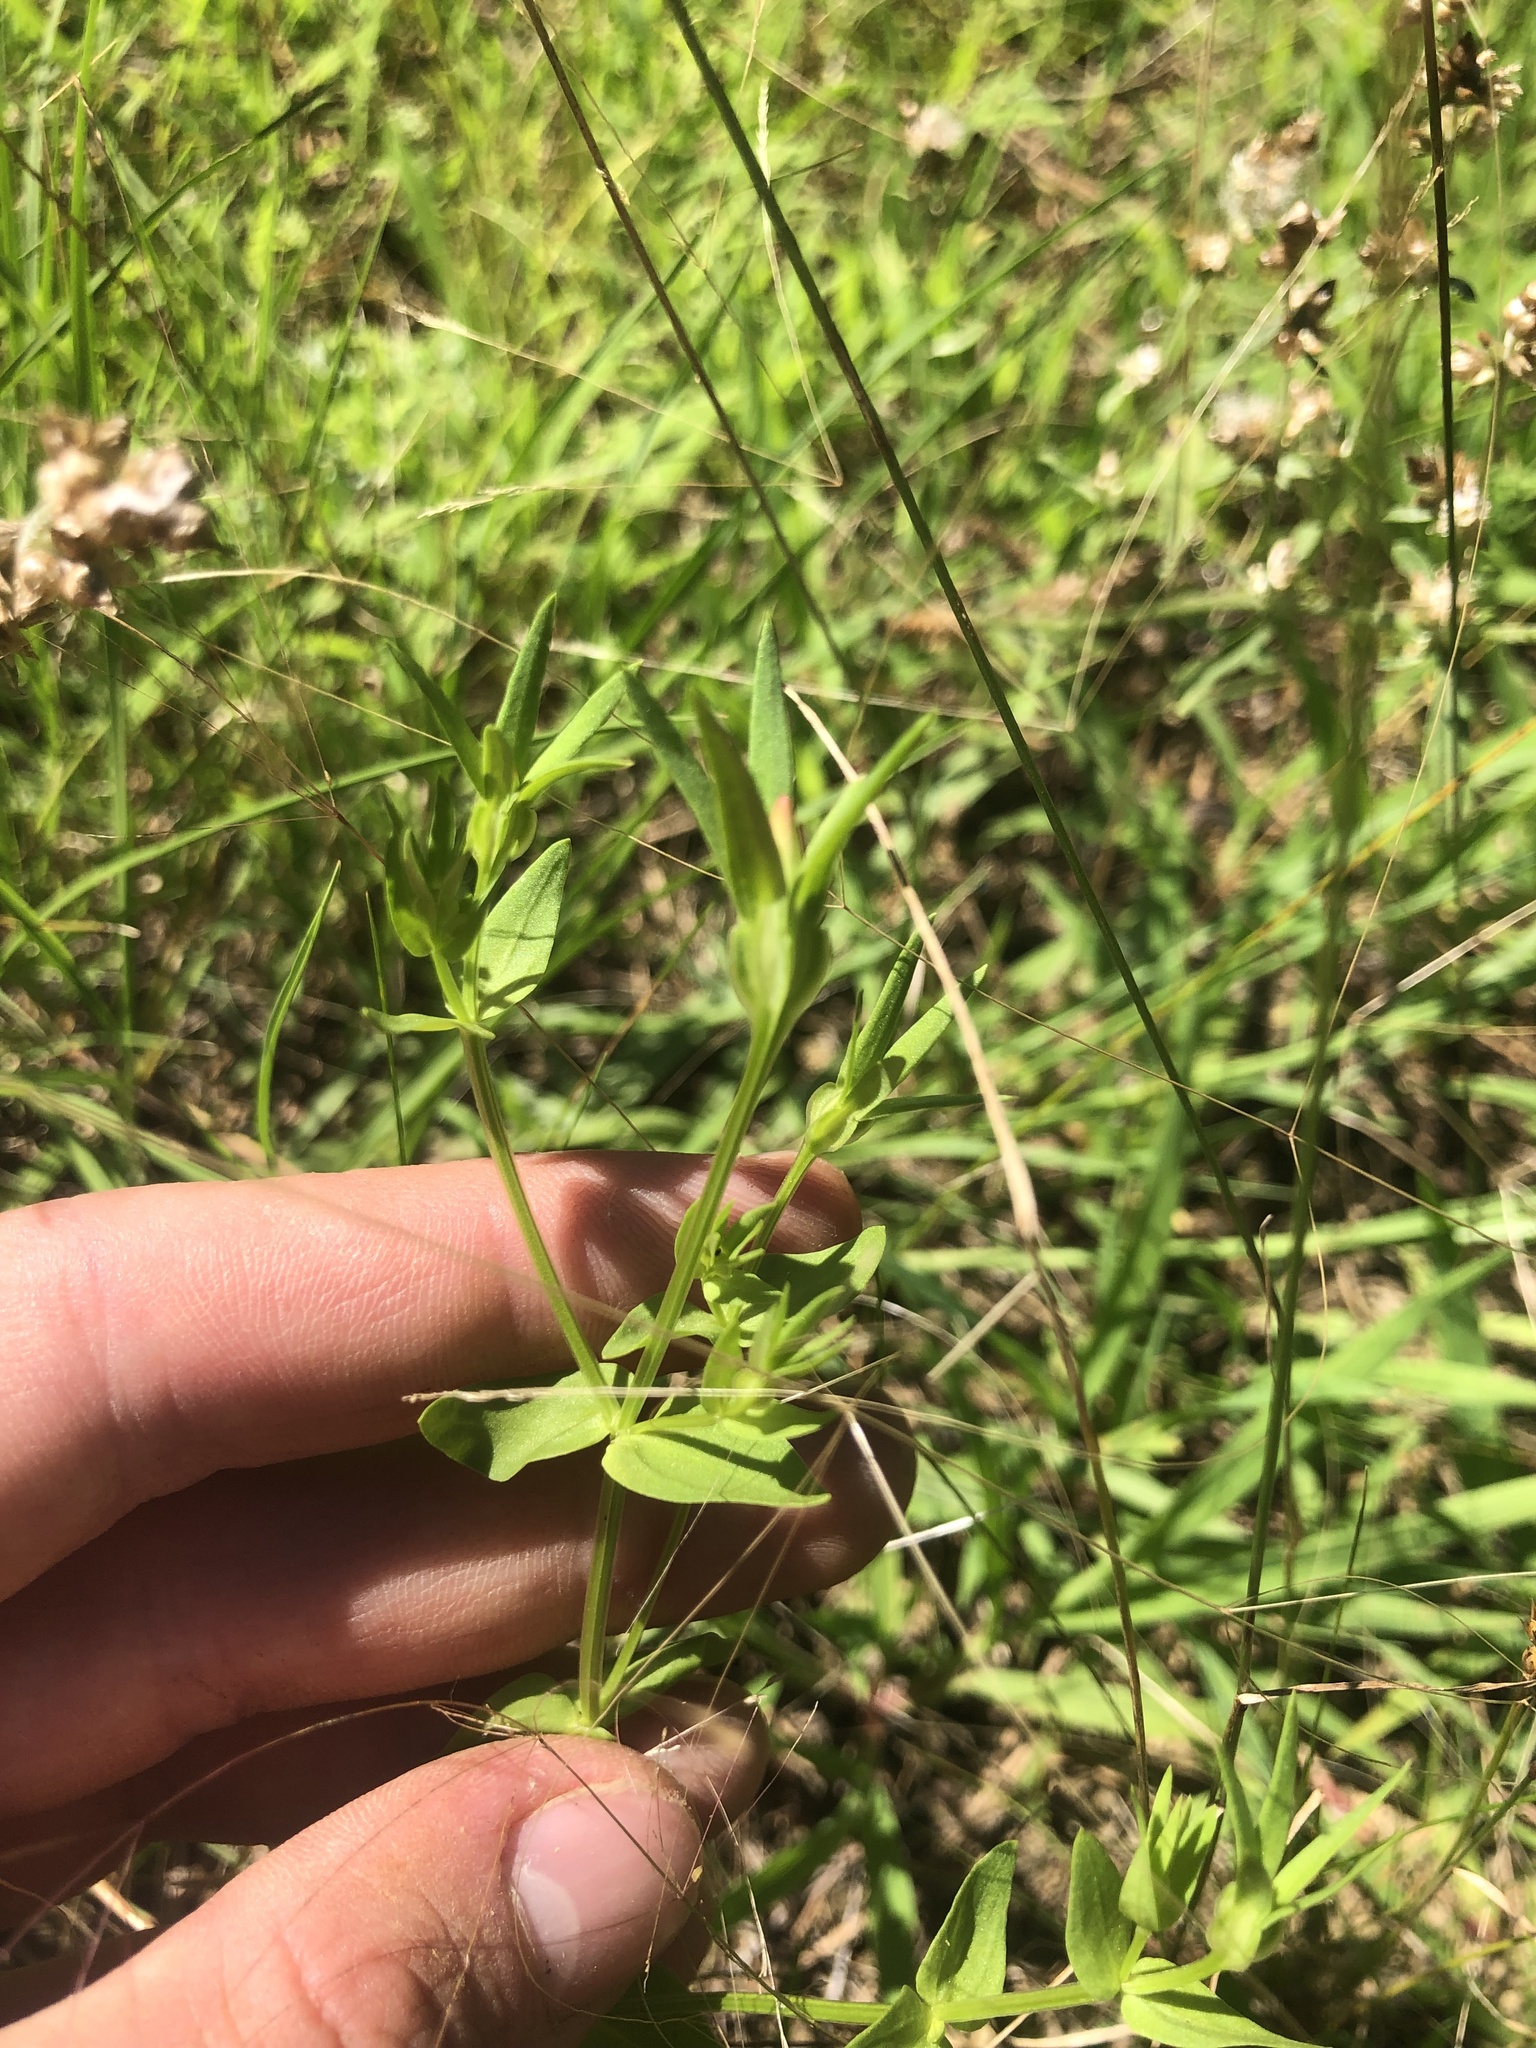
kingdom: Plantae
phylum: Tracheophyta
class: Magnoliopsida
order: Gentianales
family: Gentianaceae
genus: Sabatia
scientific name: Sabatia campestris
